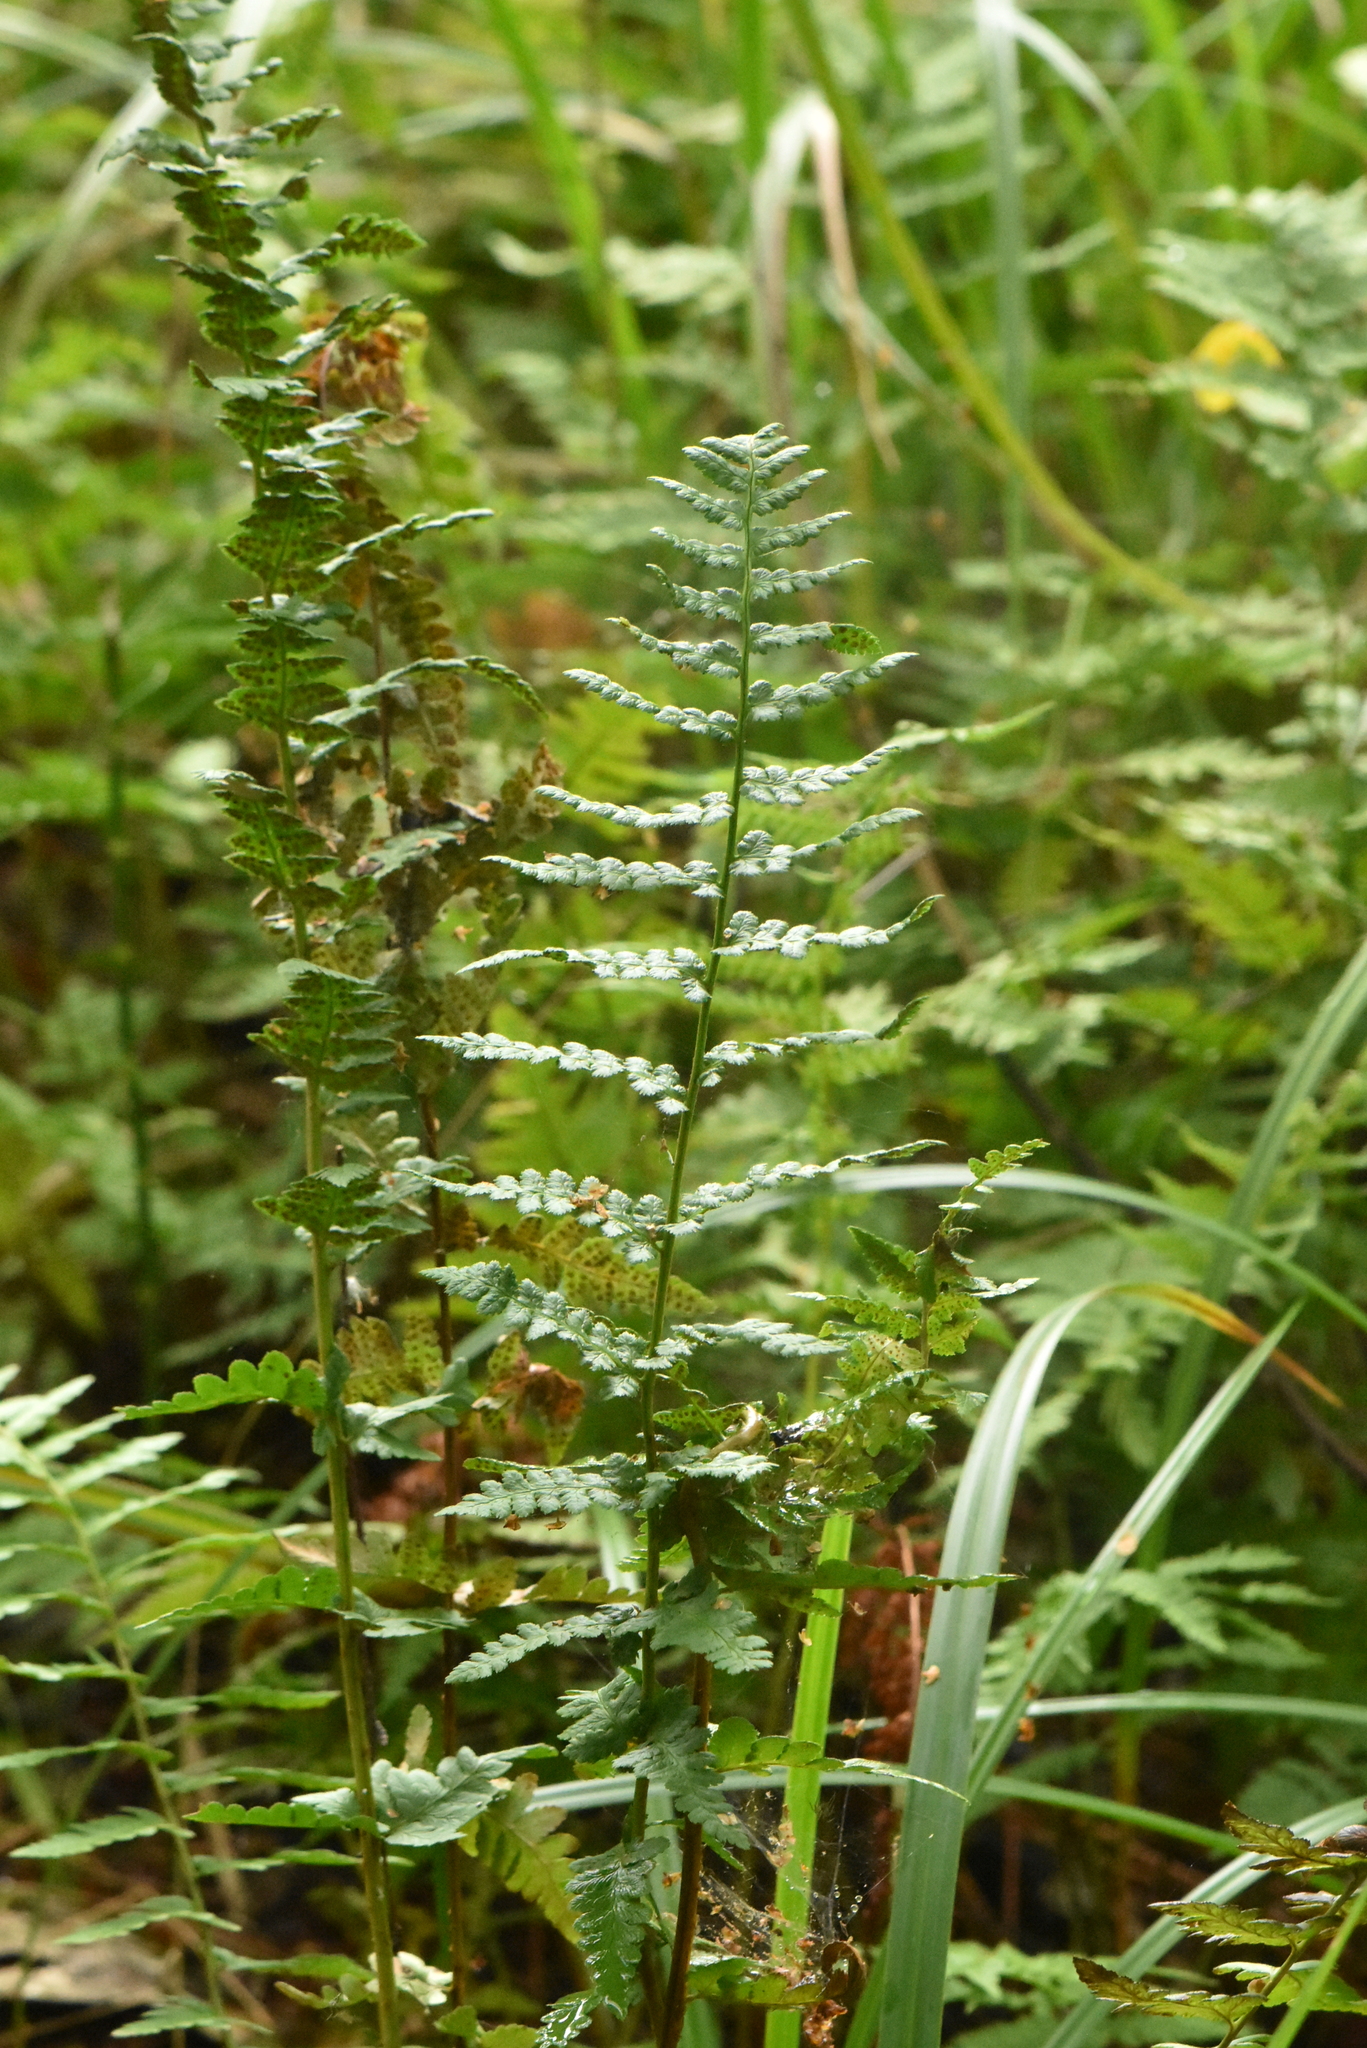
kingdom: Plantae
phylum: Tracheophyta
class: Polypodiopsida
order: Polypodiales
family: Dryopteridaceae
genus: Dryopteris
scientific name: Dryopteris cristata
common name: Crested wood fern
